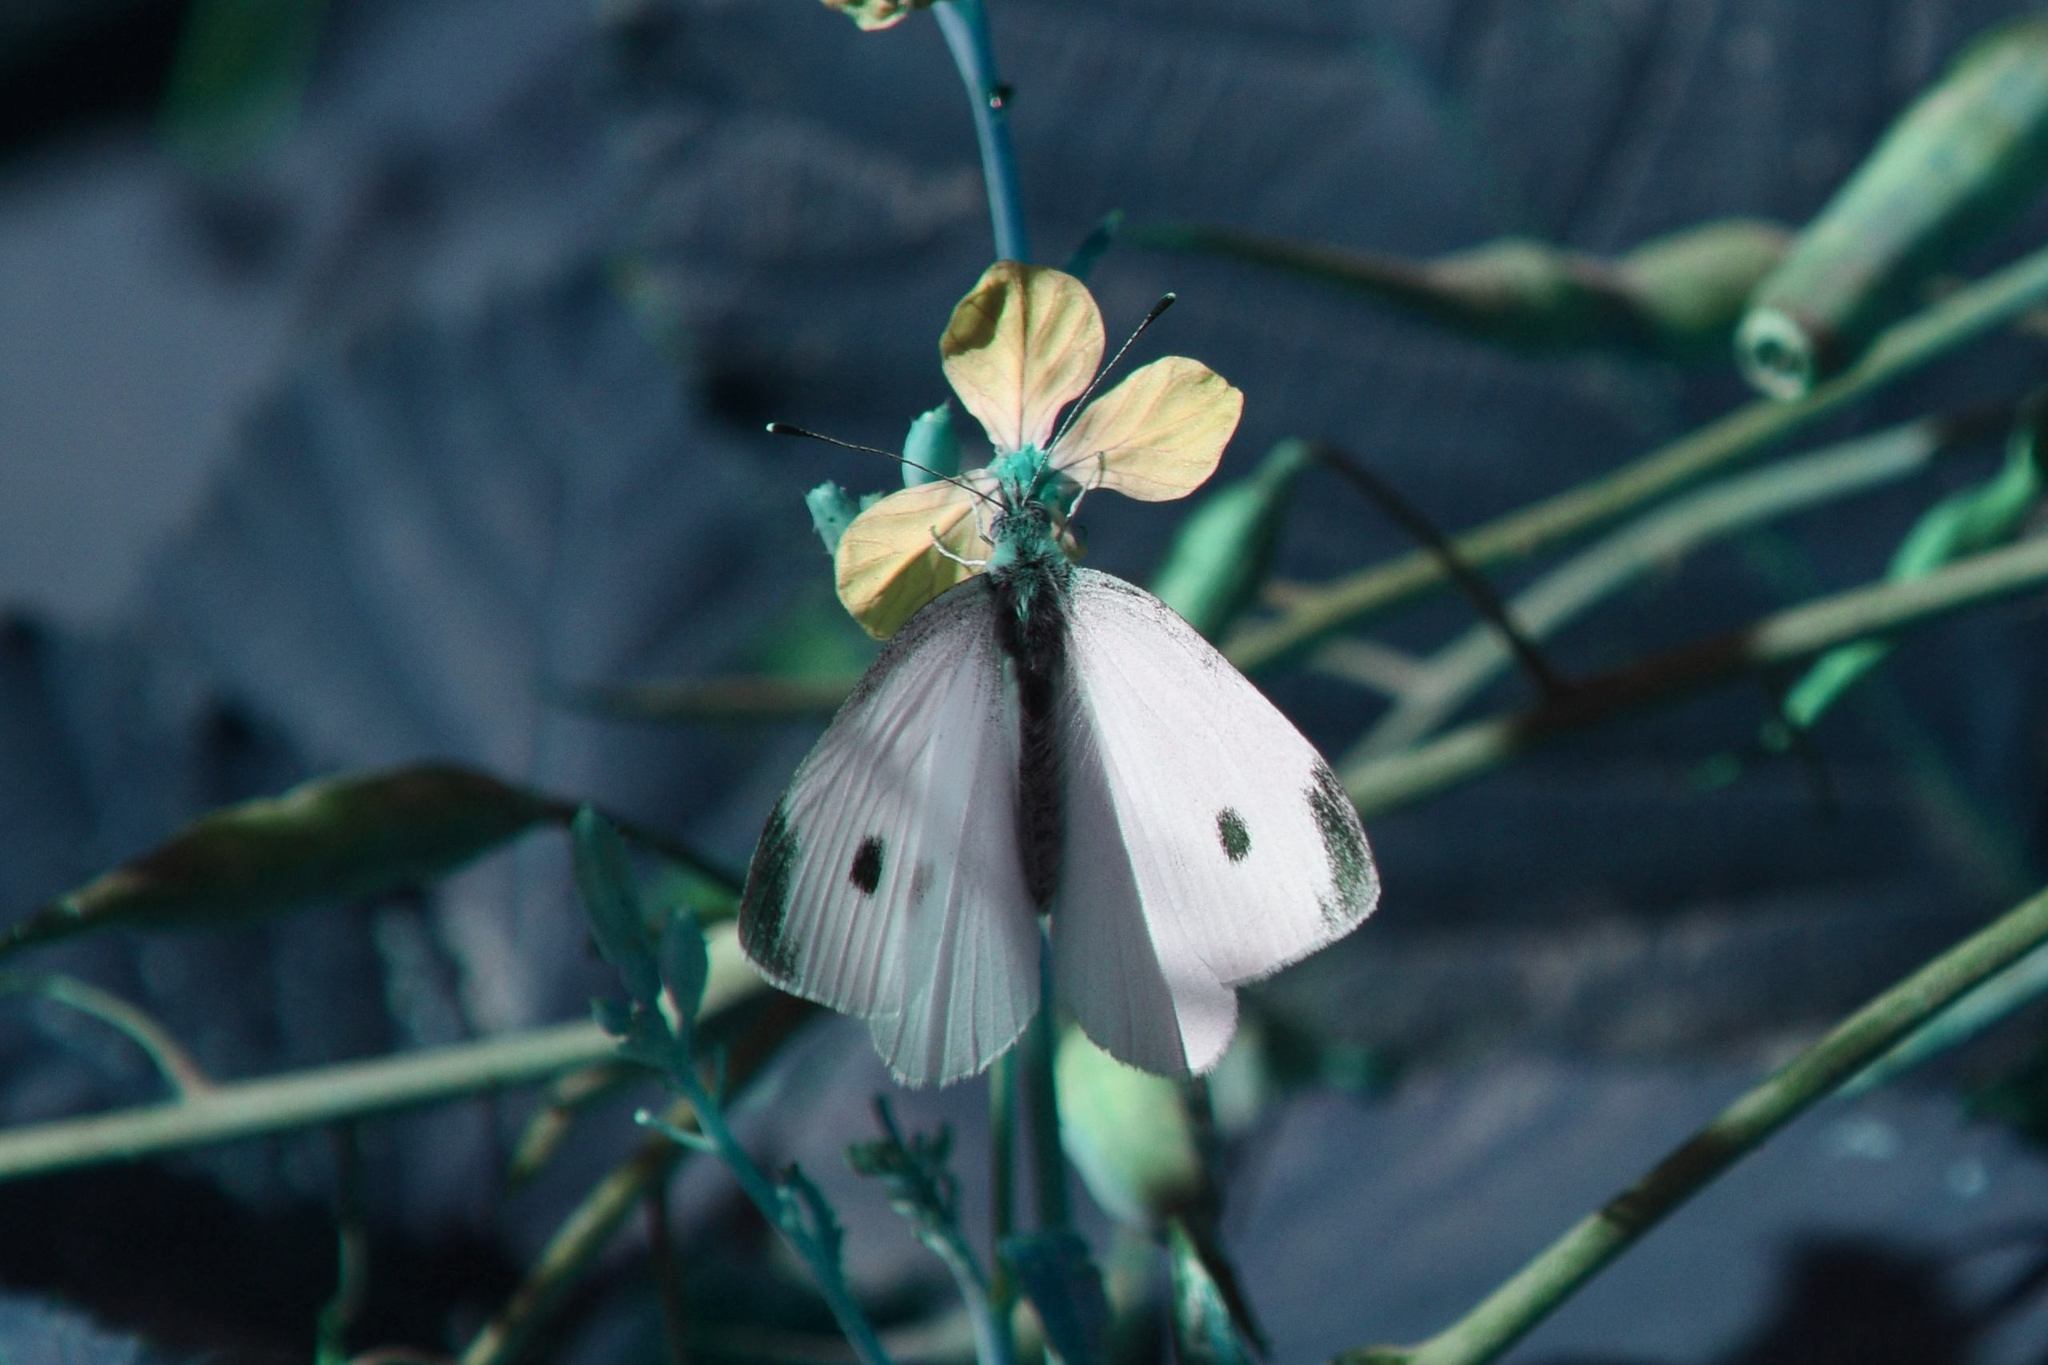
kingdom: Animalia
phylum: Arthropoda
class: Insecta
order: Lepidoptera
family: Pieridae
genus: Pieris
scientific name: Pieris rapae
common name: Small white
